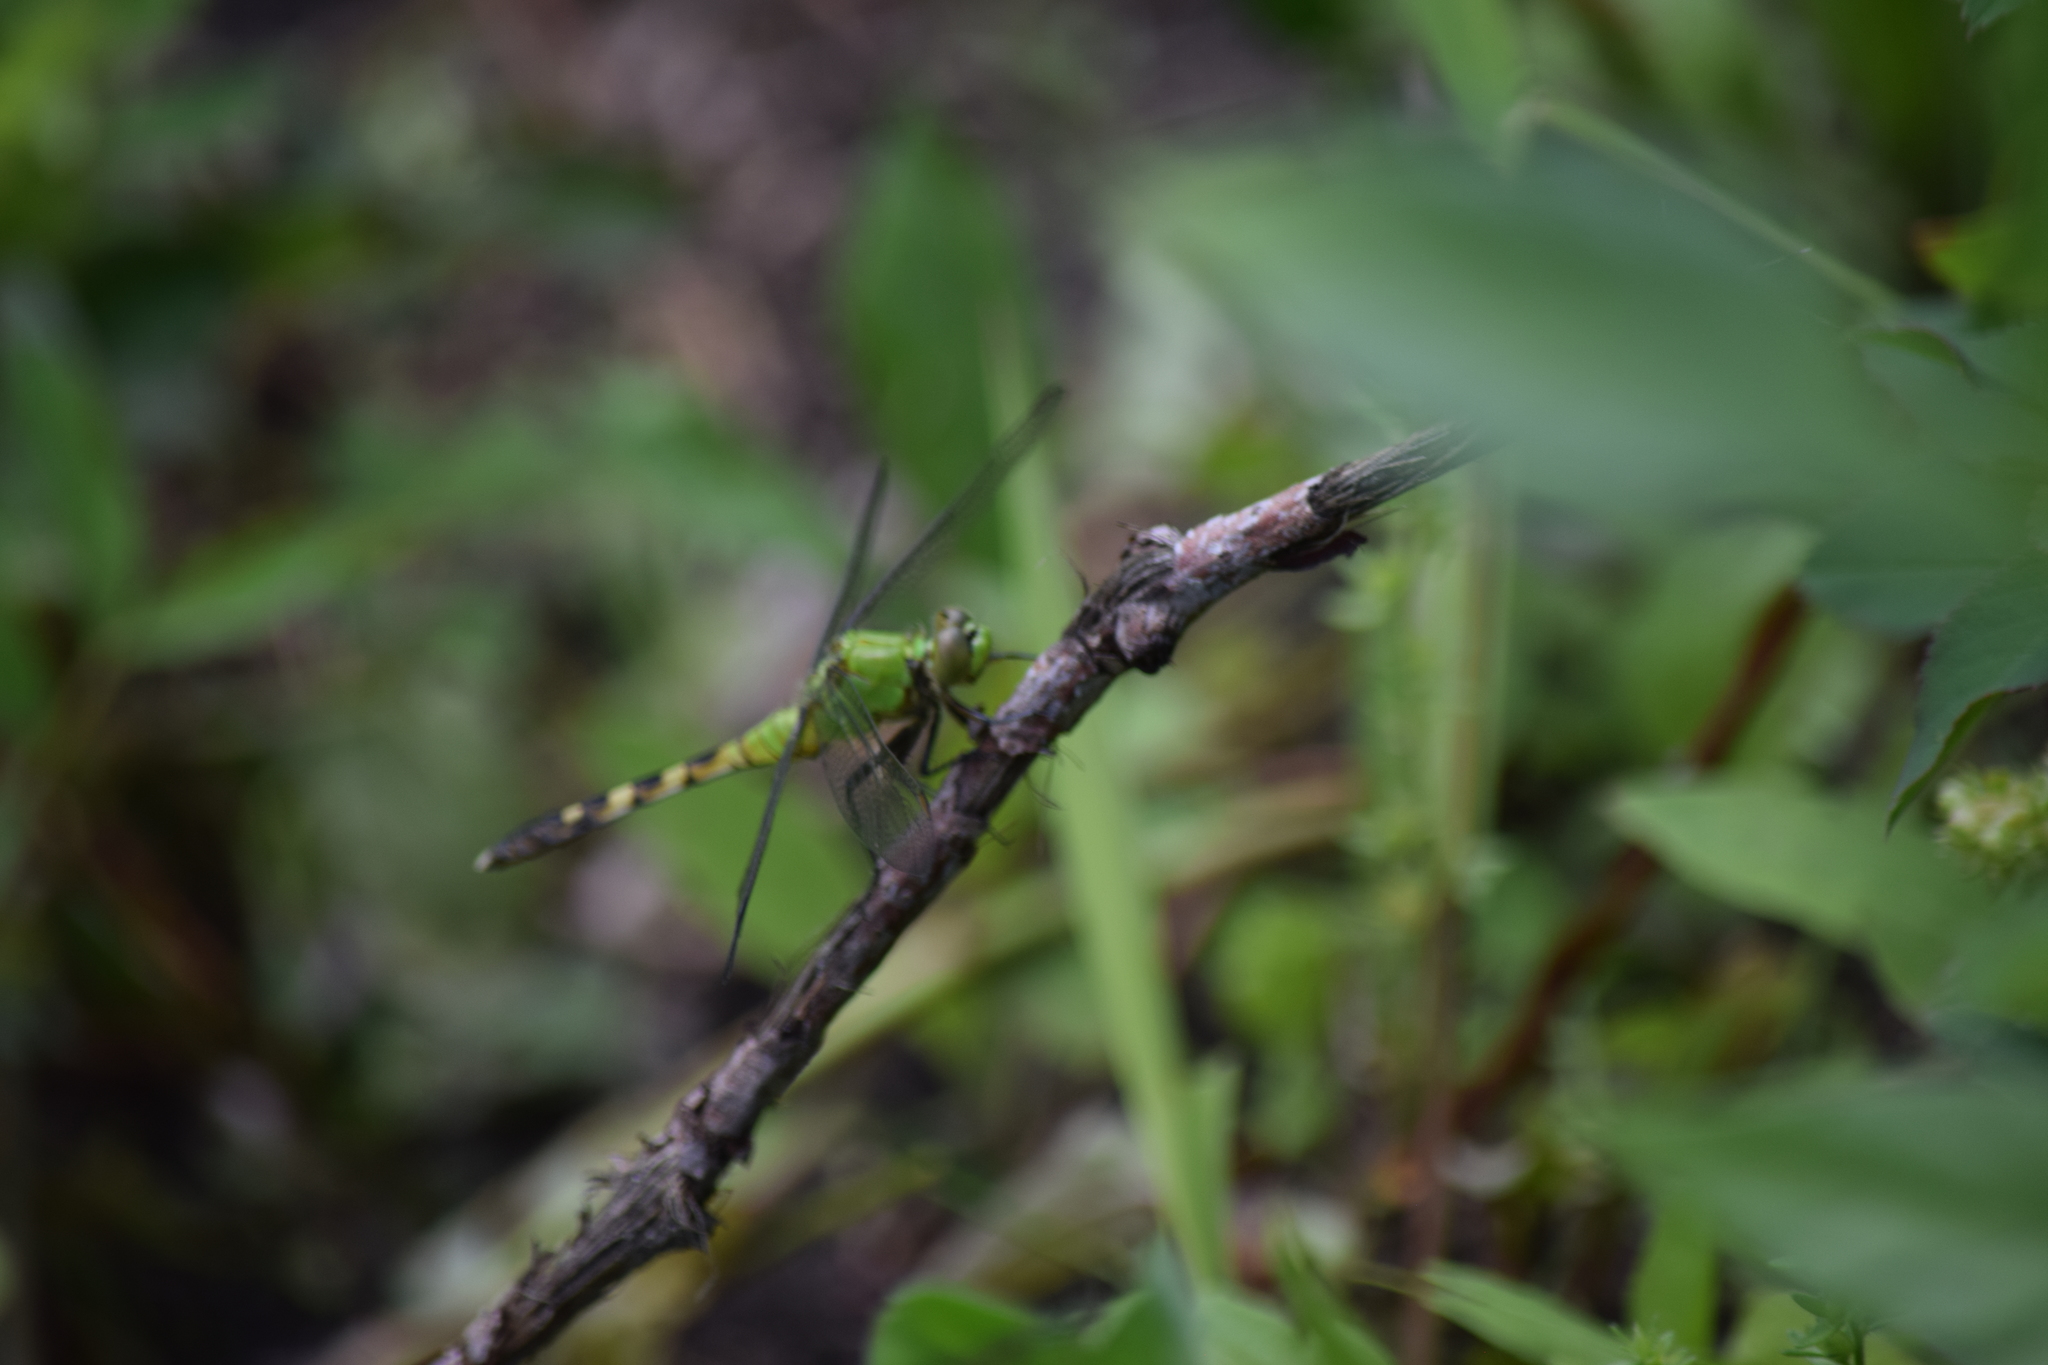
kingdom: Animalia
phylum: Arthropoda
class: Insecta
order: Odonata
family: Libellulidae
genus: Erythemis
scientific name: Erythemis simplicicollis
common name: Eastern pondhawk
